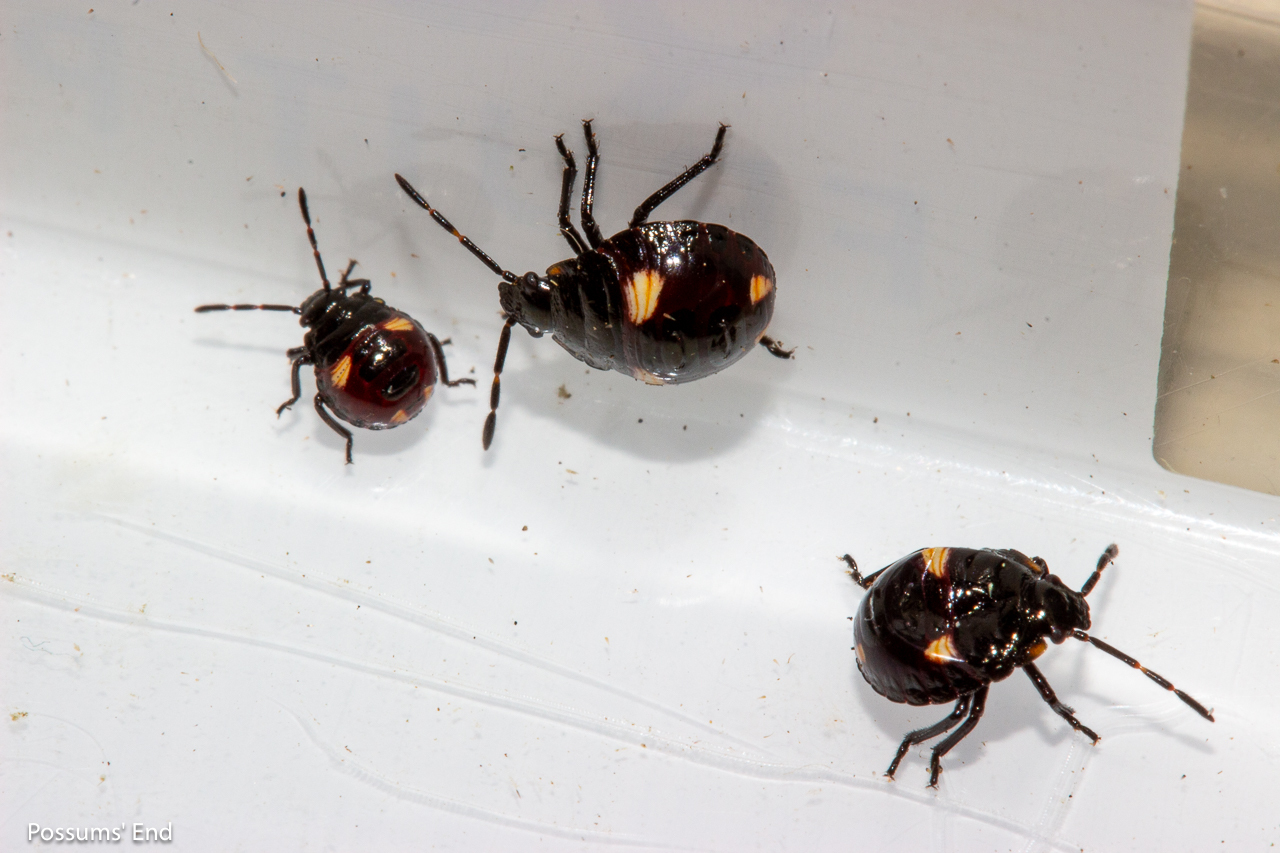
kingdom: Animalia
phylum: Arthropoda
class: Insecta
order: Hemiptera
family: Pentatomidae
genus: Cermatulus
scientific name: Cermatulus nasalis
